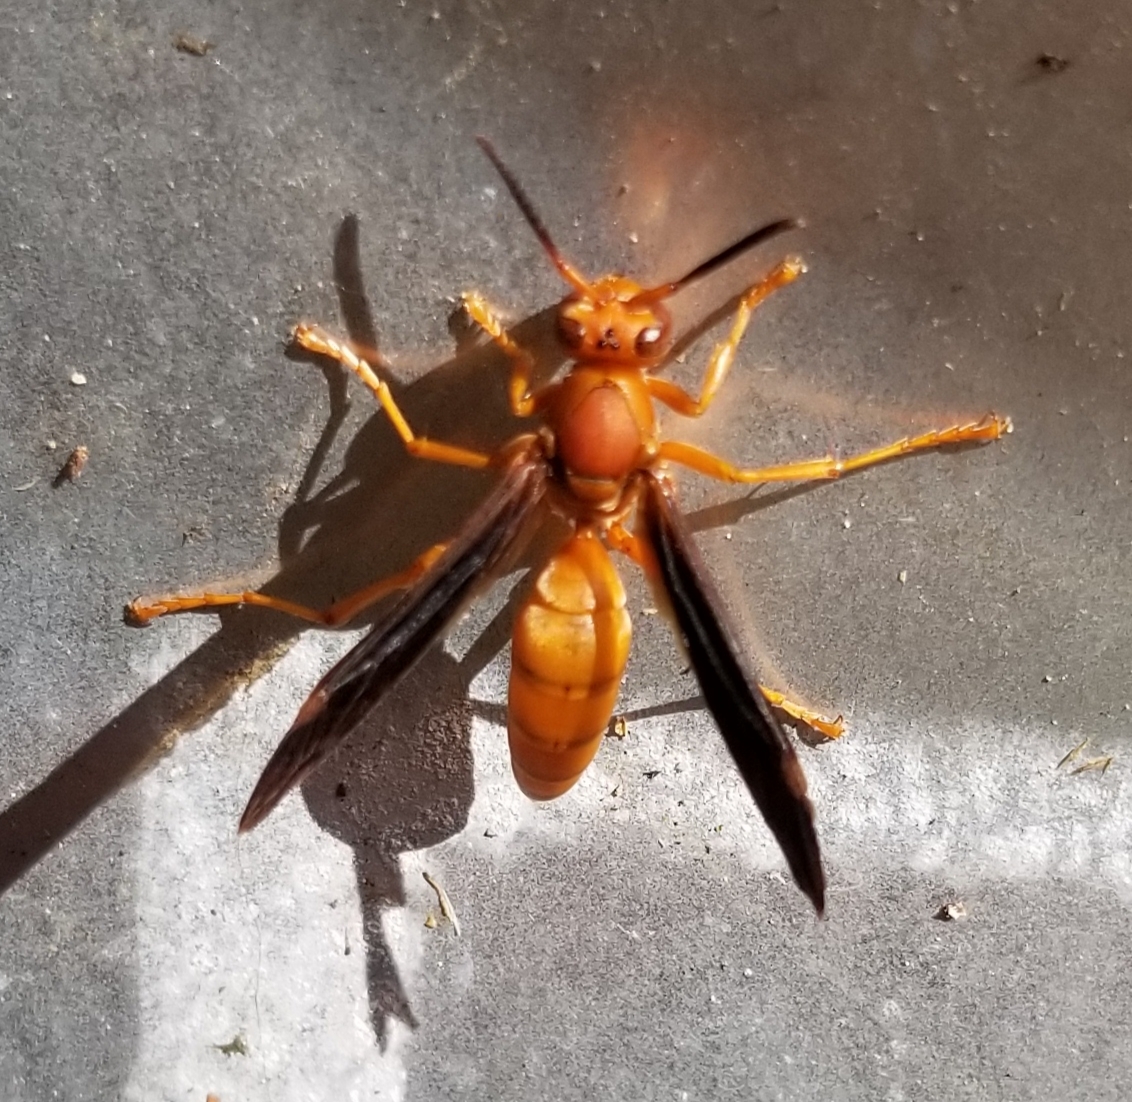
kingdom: Animalia
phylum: Arthropoda
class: Insecta
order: Hymenoptera
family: Eumenidae
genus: Polistes
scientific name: Polistes carolina
